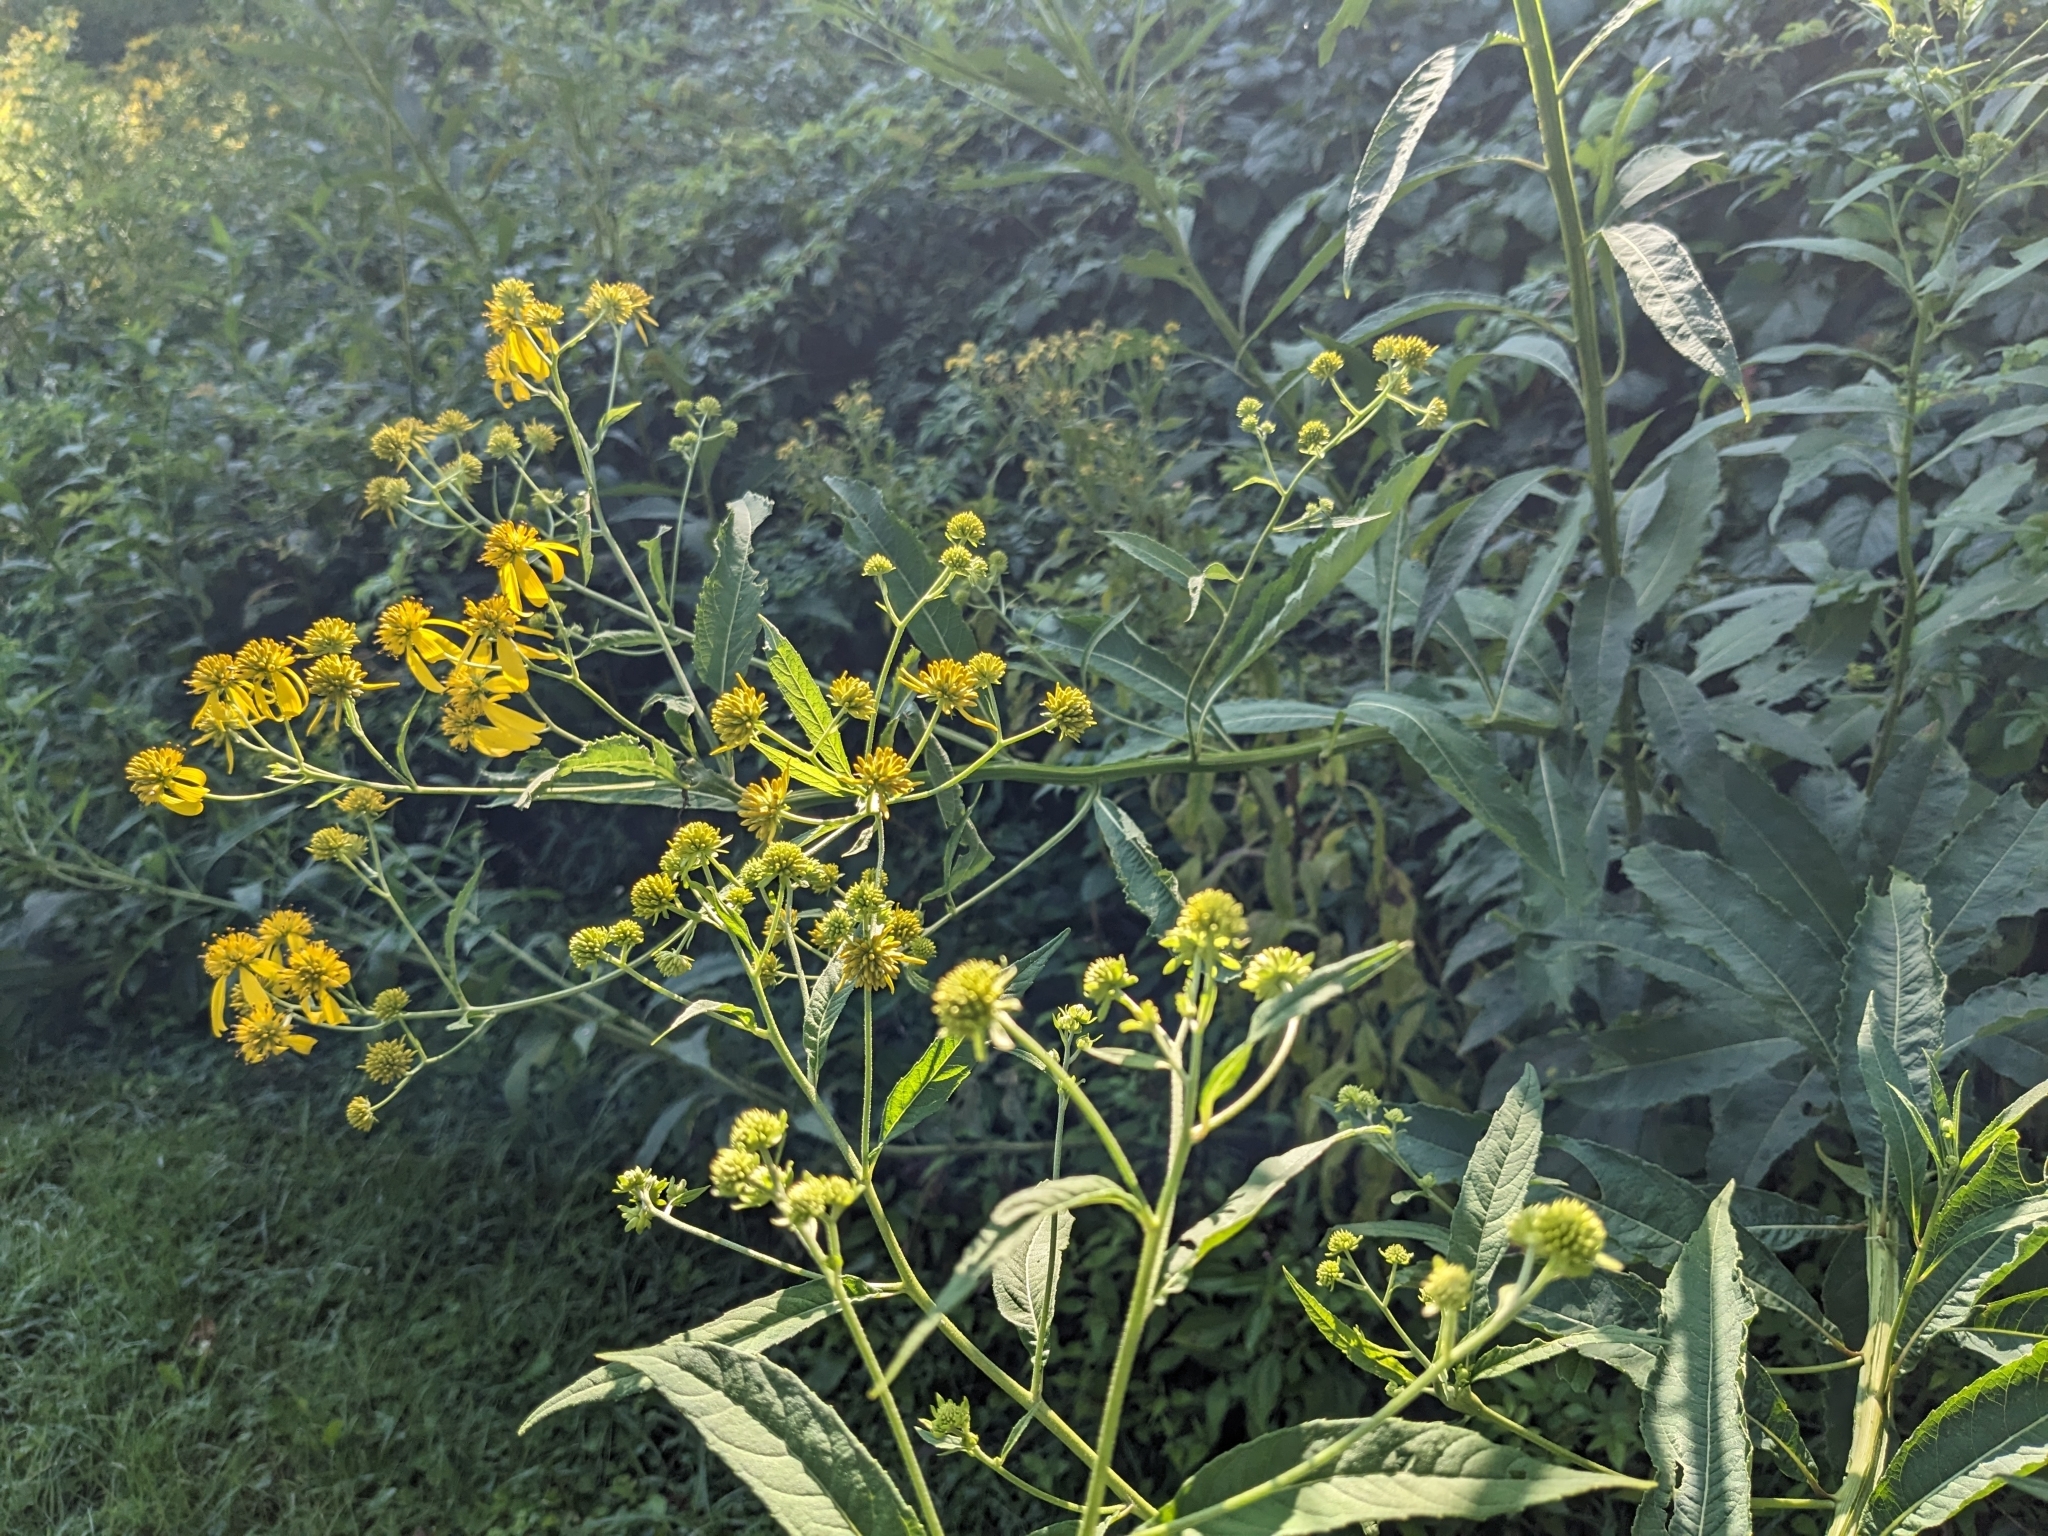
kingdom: Plantae
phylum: Tracheophyta
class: Magnoliopsida
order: Asterales
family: Asteraceae
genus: Verbesina
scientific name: Verbesina alternifolia
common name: Wingstem
